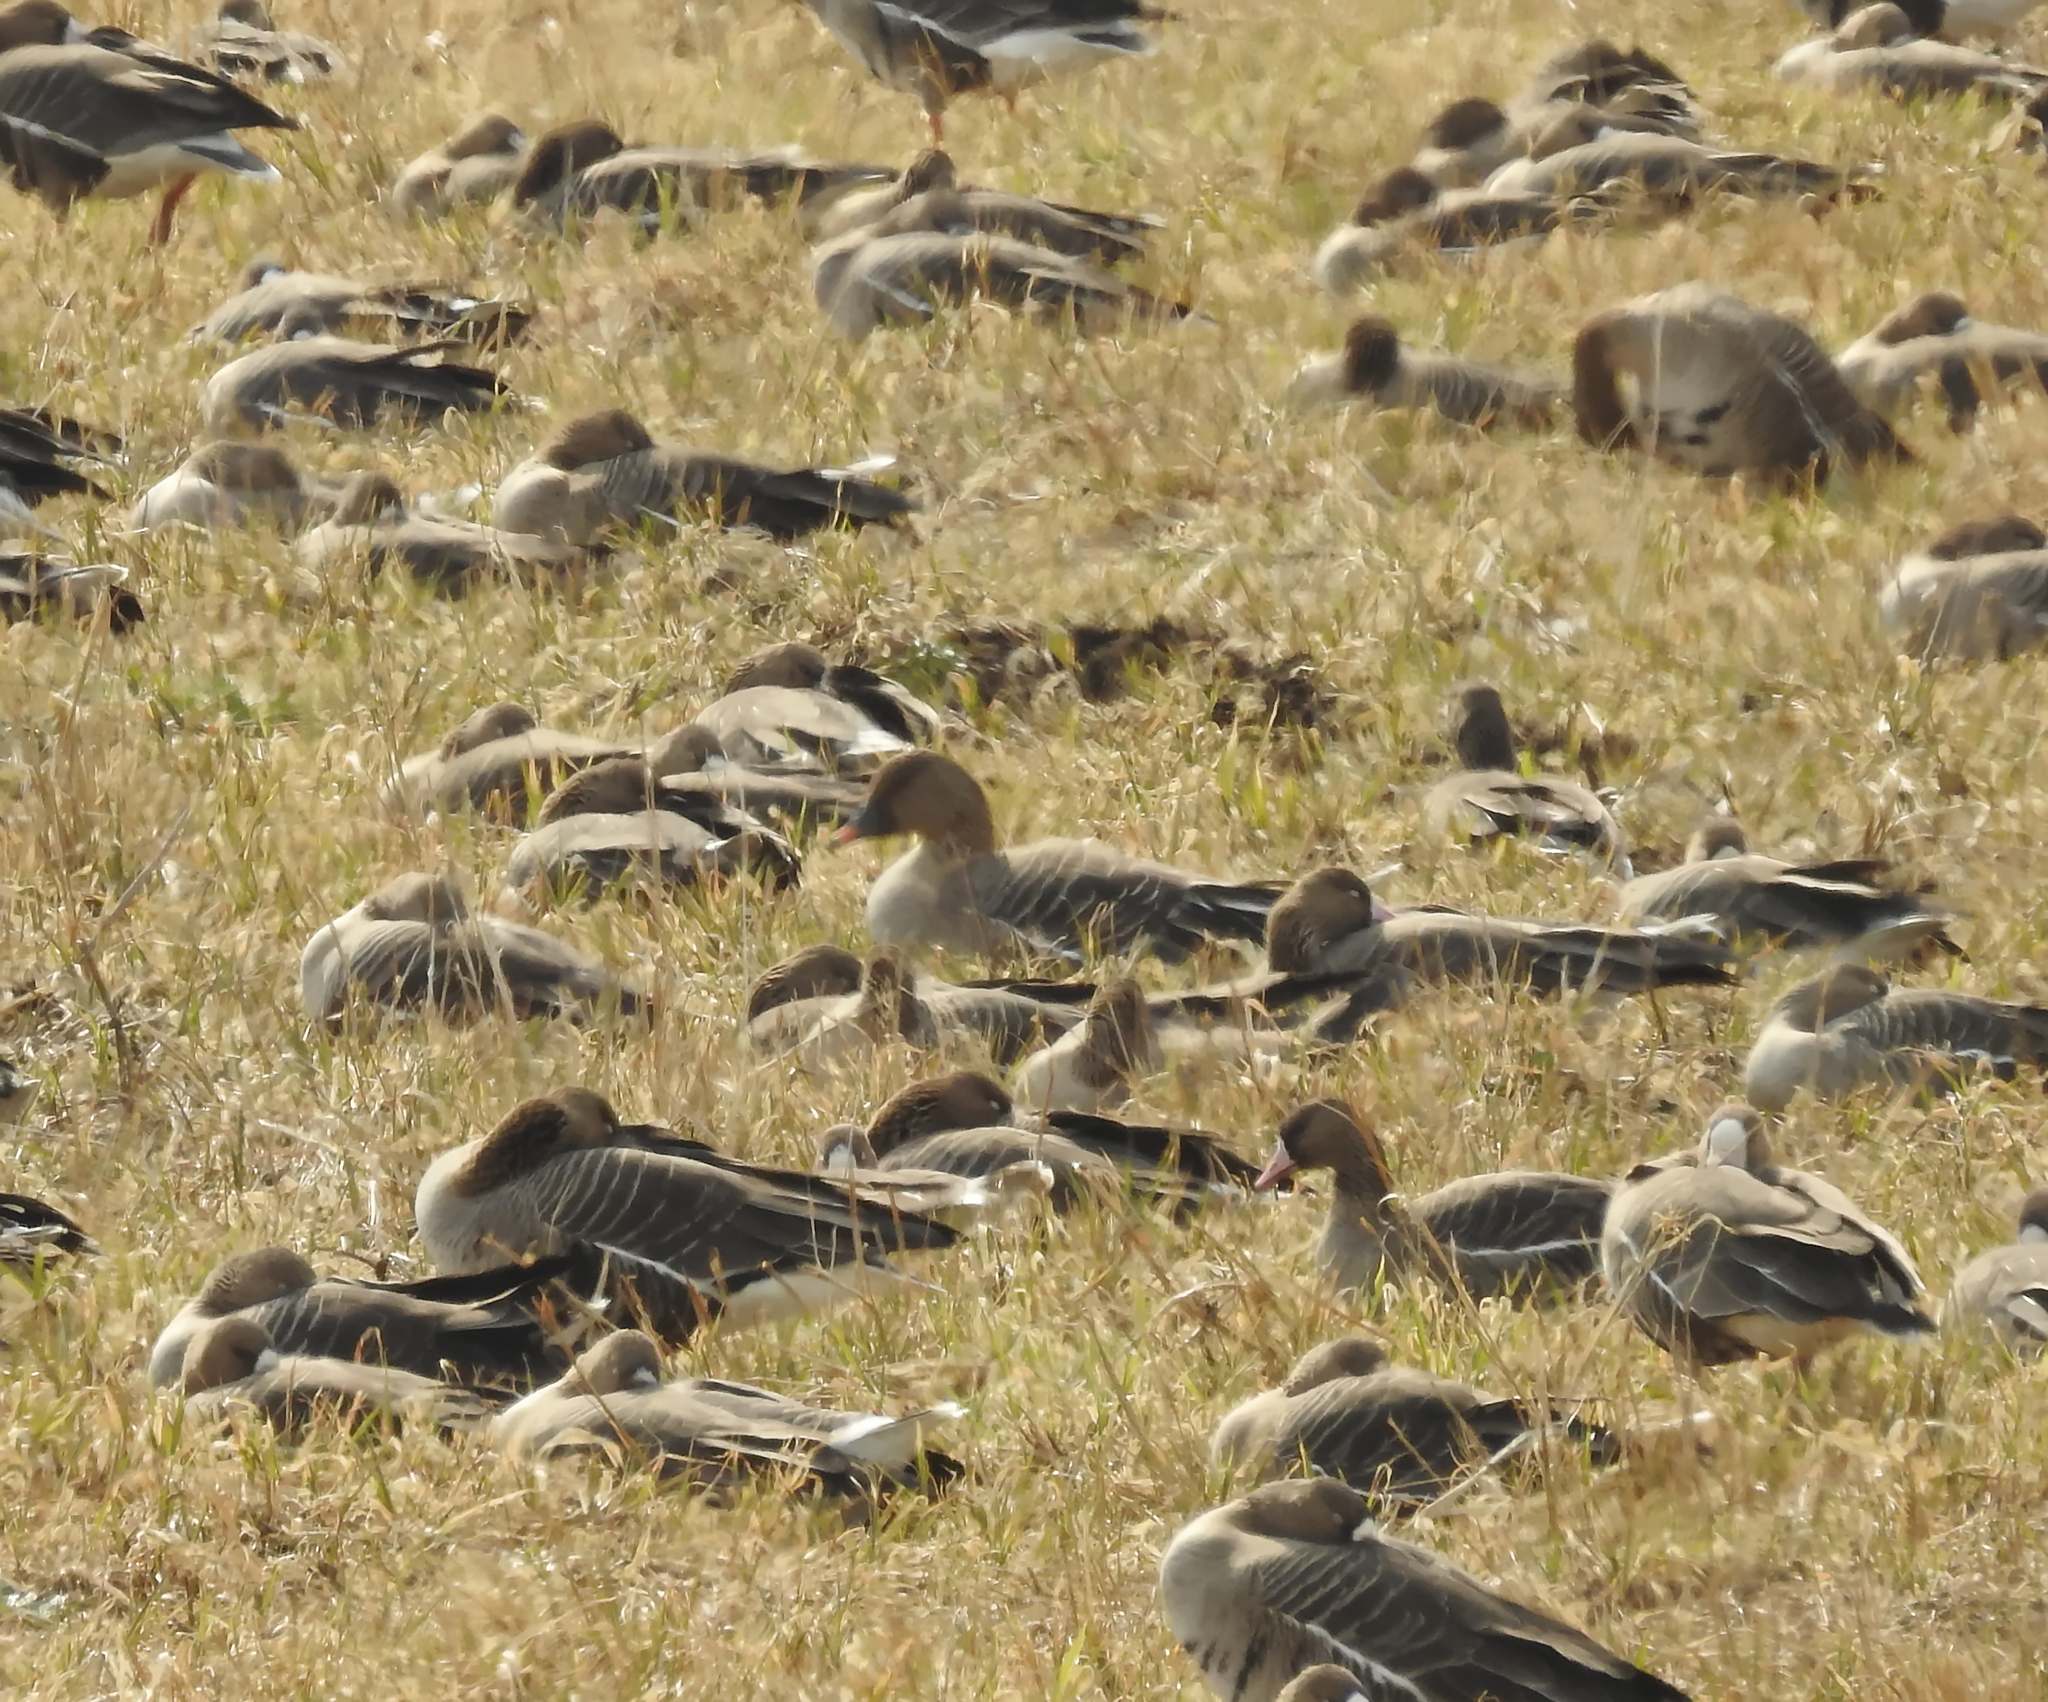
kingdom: Animalia
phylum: Chordata
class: Aves
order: Anseriformes
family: Anatidae
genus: Anser
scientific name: Anser serrirostris
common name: Tundra bean goose
